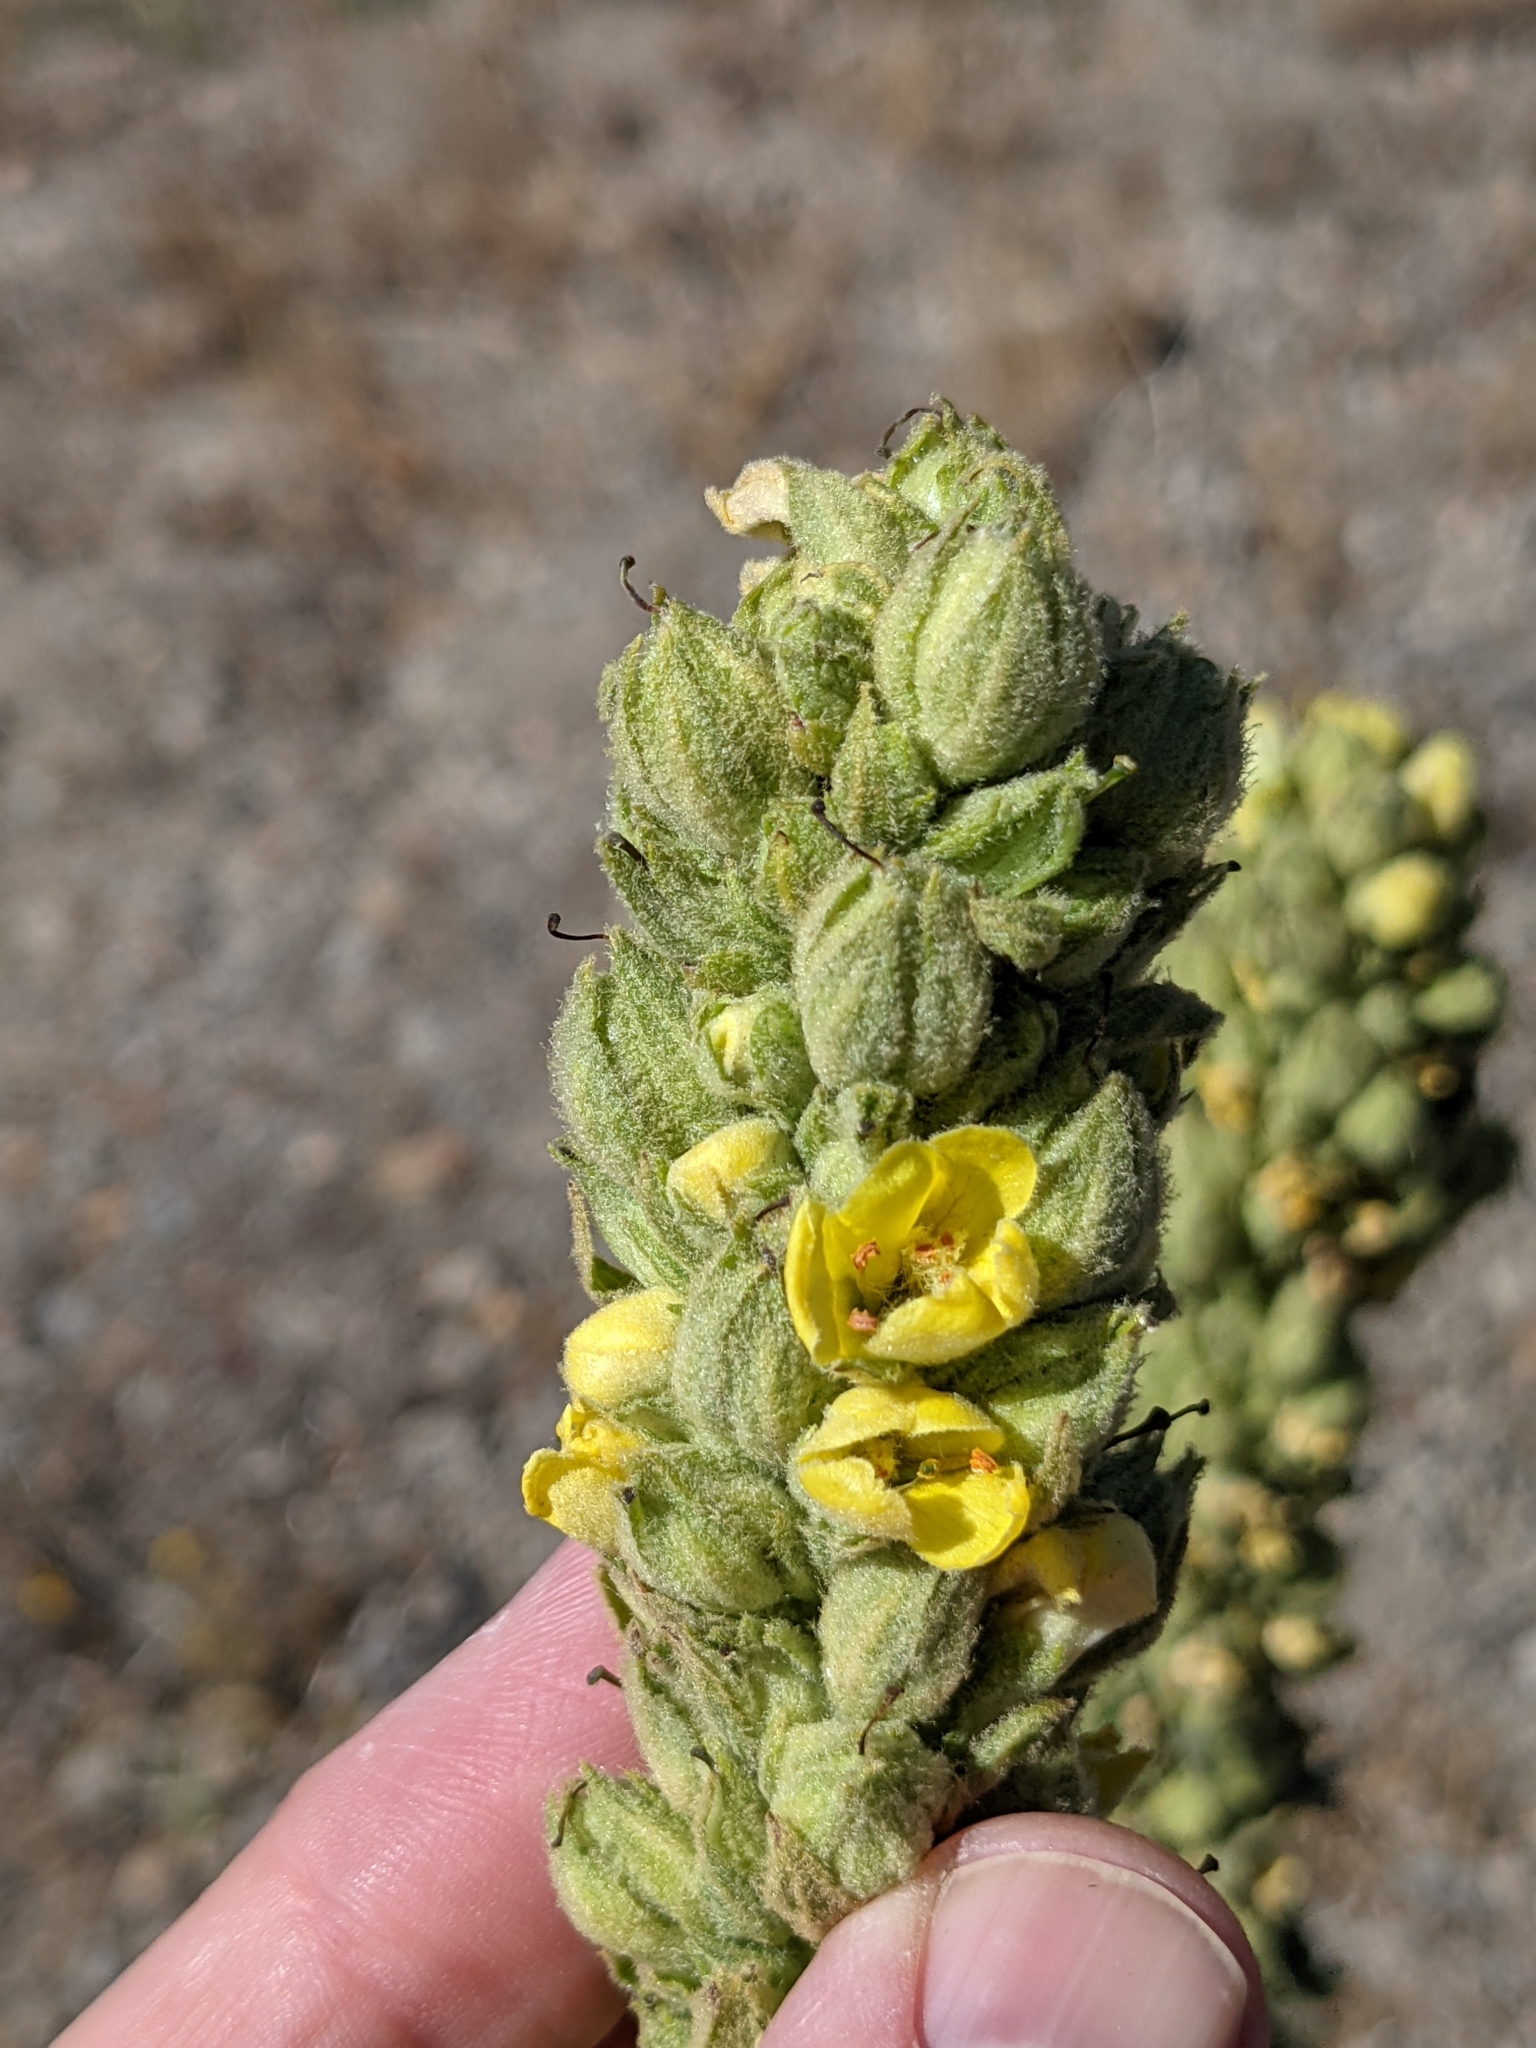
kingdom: Plantae
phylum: Tracheophyta
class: Magnoliopsida
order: Lamiales
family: Scrophulariaceae
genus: Verbascum
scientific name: Verbascum thapsus
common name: Common mullein
